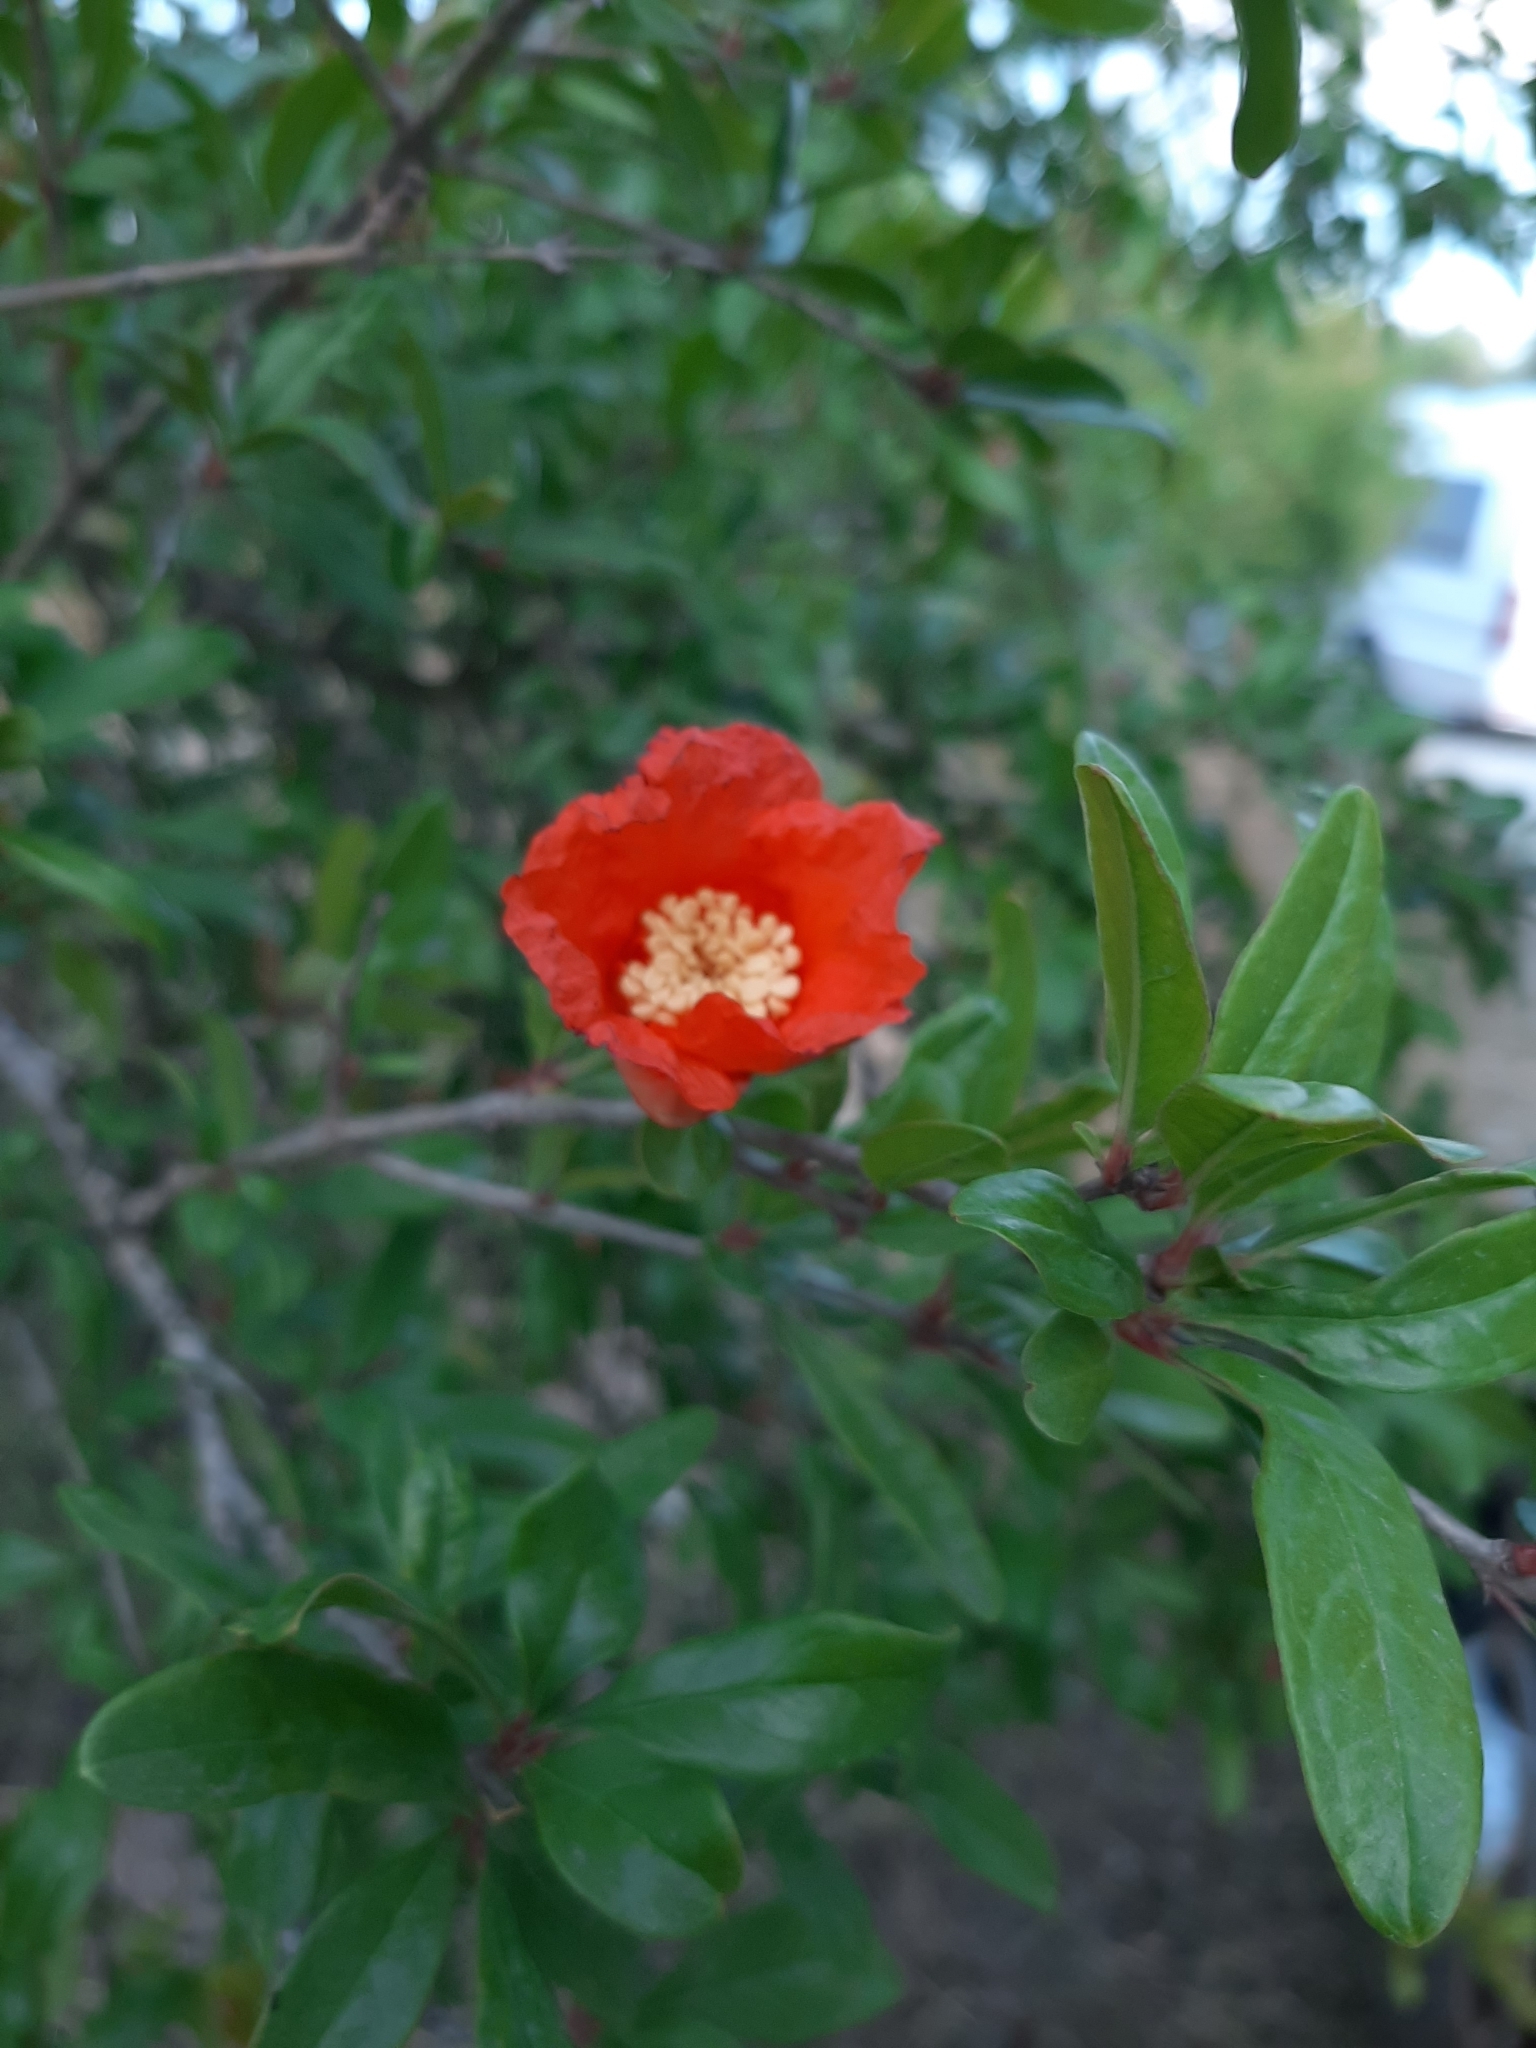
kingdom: Plantae
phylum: Tracheophyta
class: Magnoliopsida
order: Myrtales
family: Lythraceae
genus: Punica
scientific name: Punica granatum
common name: Pomegranate
